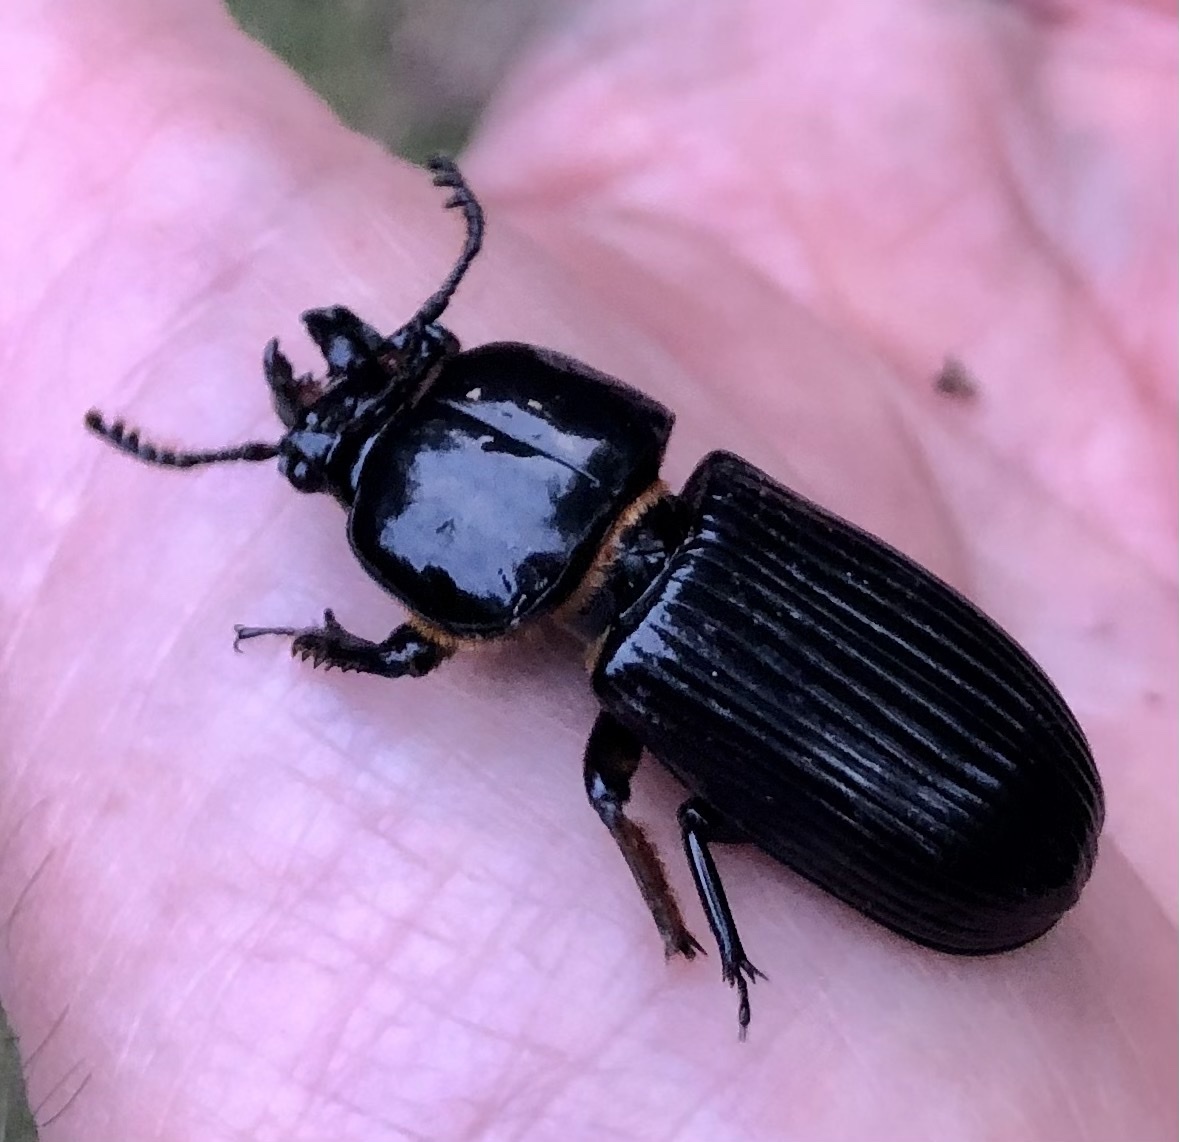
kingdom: Animalia
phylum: Arthropoda
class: Insecta
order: Coleoptera
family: Passalidae
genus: Odontotaenius
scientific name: Odontotaenius disjunctus
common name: Patent leather beetle
